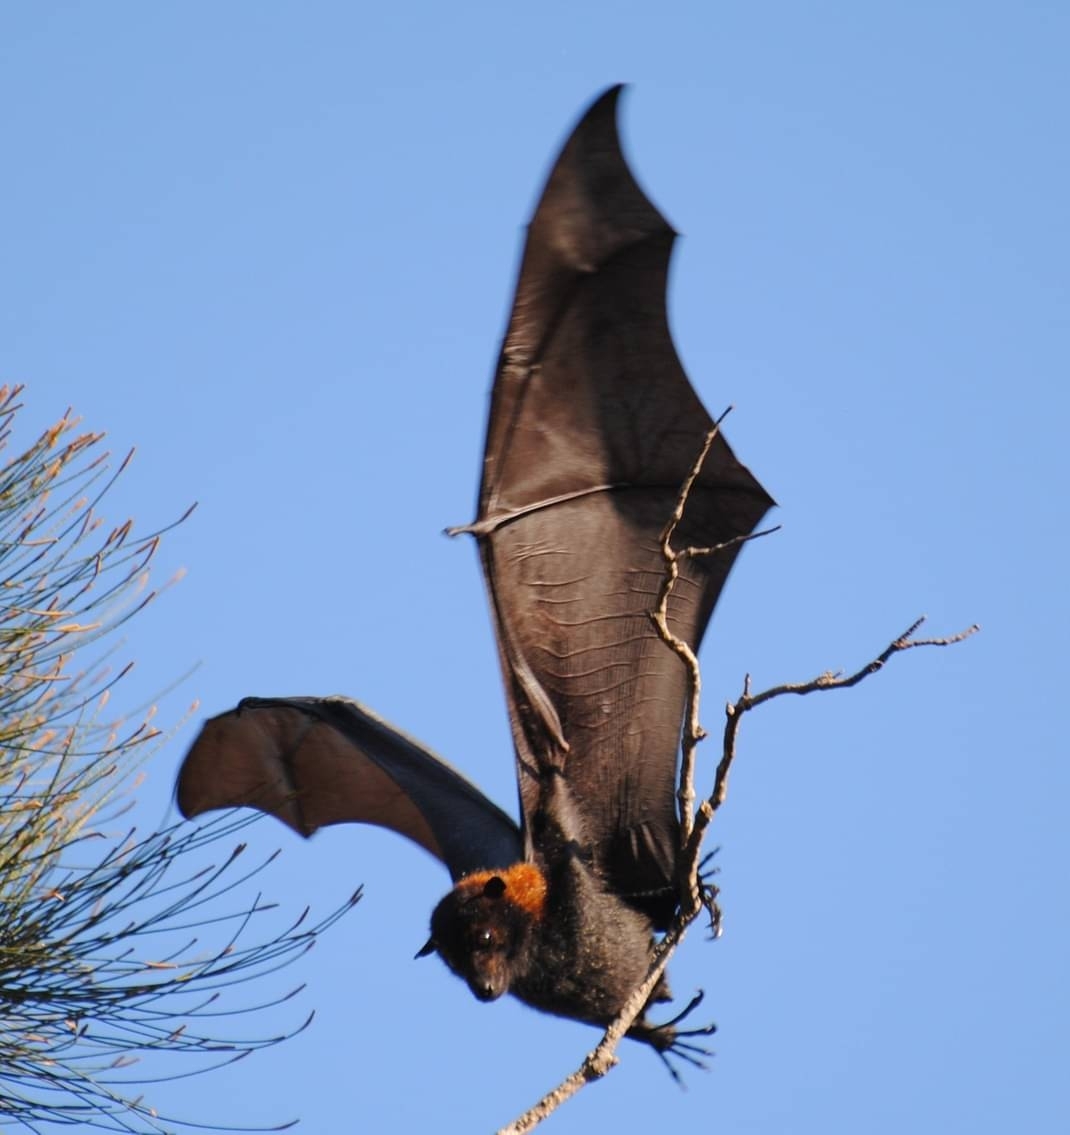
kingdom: Animalia
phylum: Chordata
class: Mammalia
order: Chiroptera
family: Pteropodidae
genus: Pteropus
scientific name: Pteropus alecto
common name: Black flying fox
